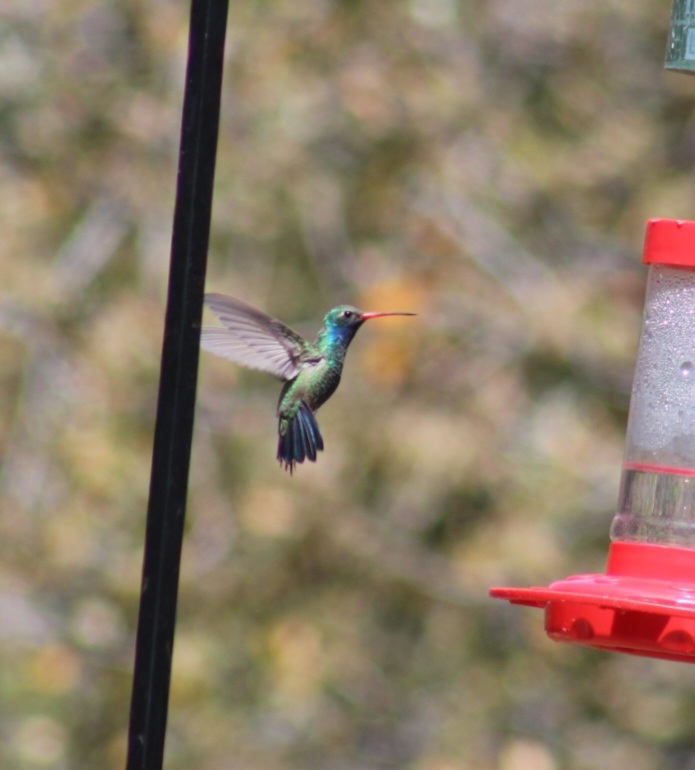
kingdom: Animalia
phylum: Chordata
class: Aves
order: Apodiformes
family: Trochilidae
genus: Cynanthus
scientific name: Cynanthus latirostris
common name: Broad-billed hummingbird
